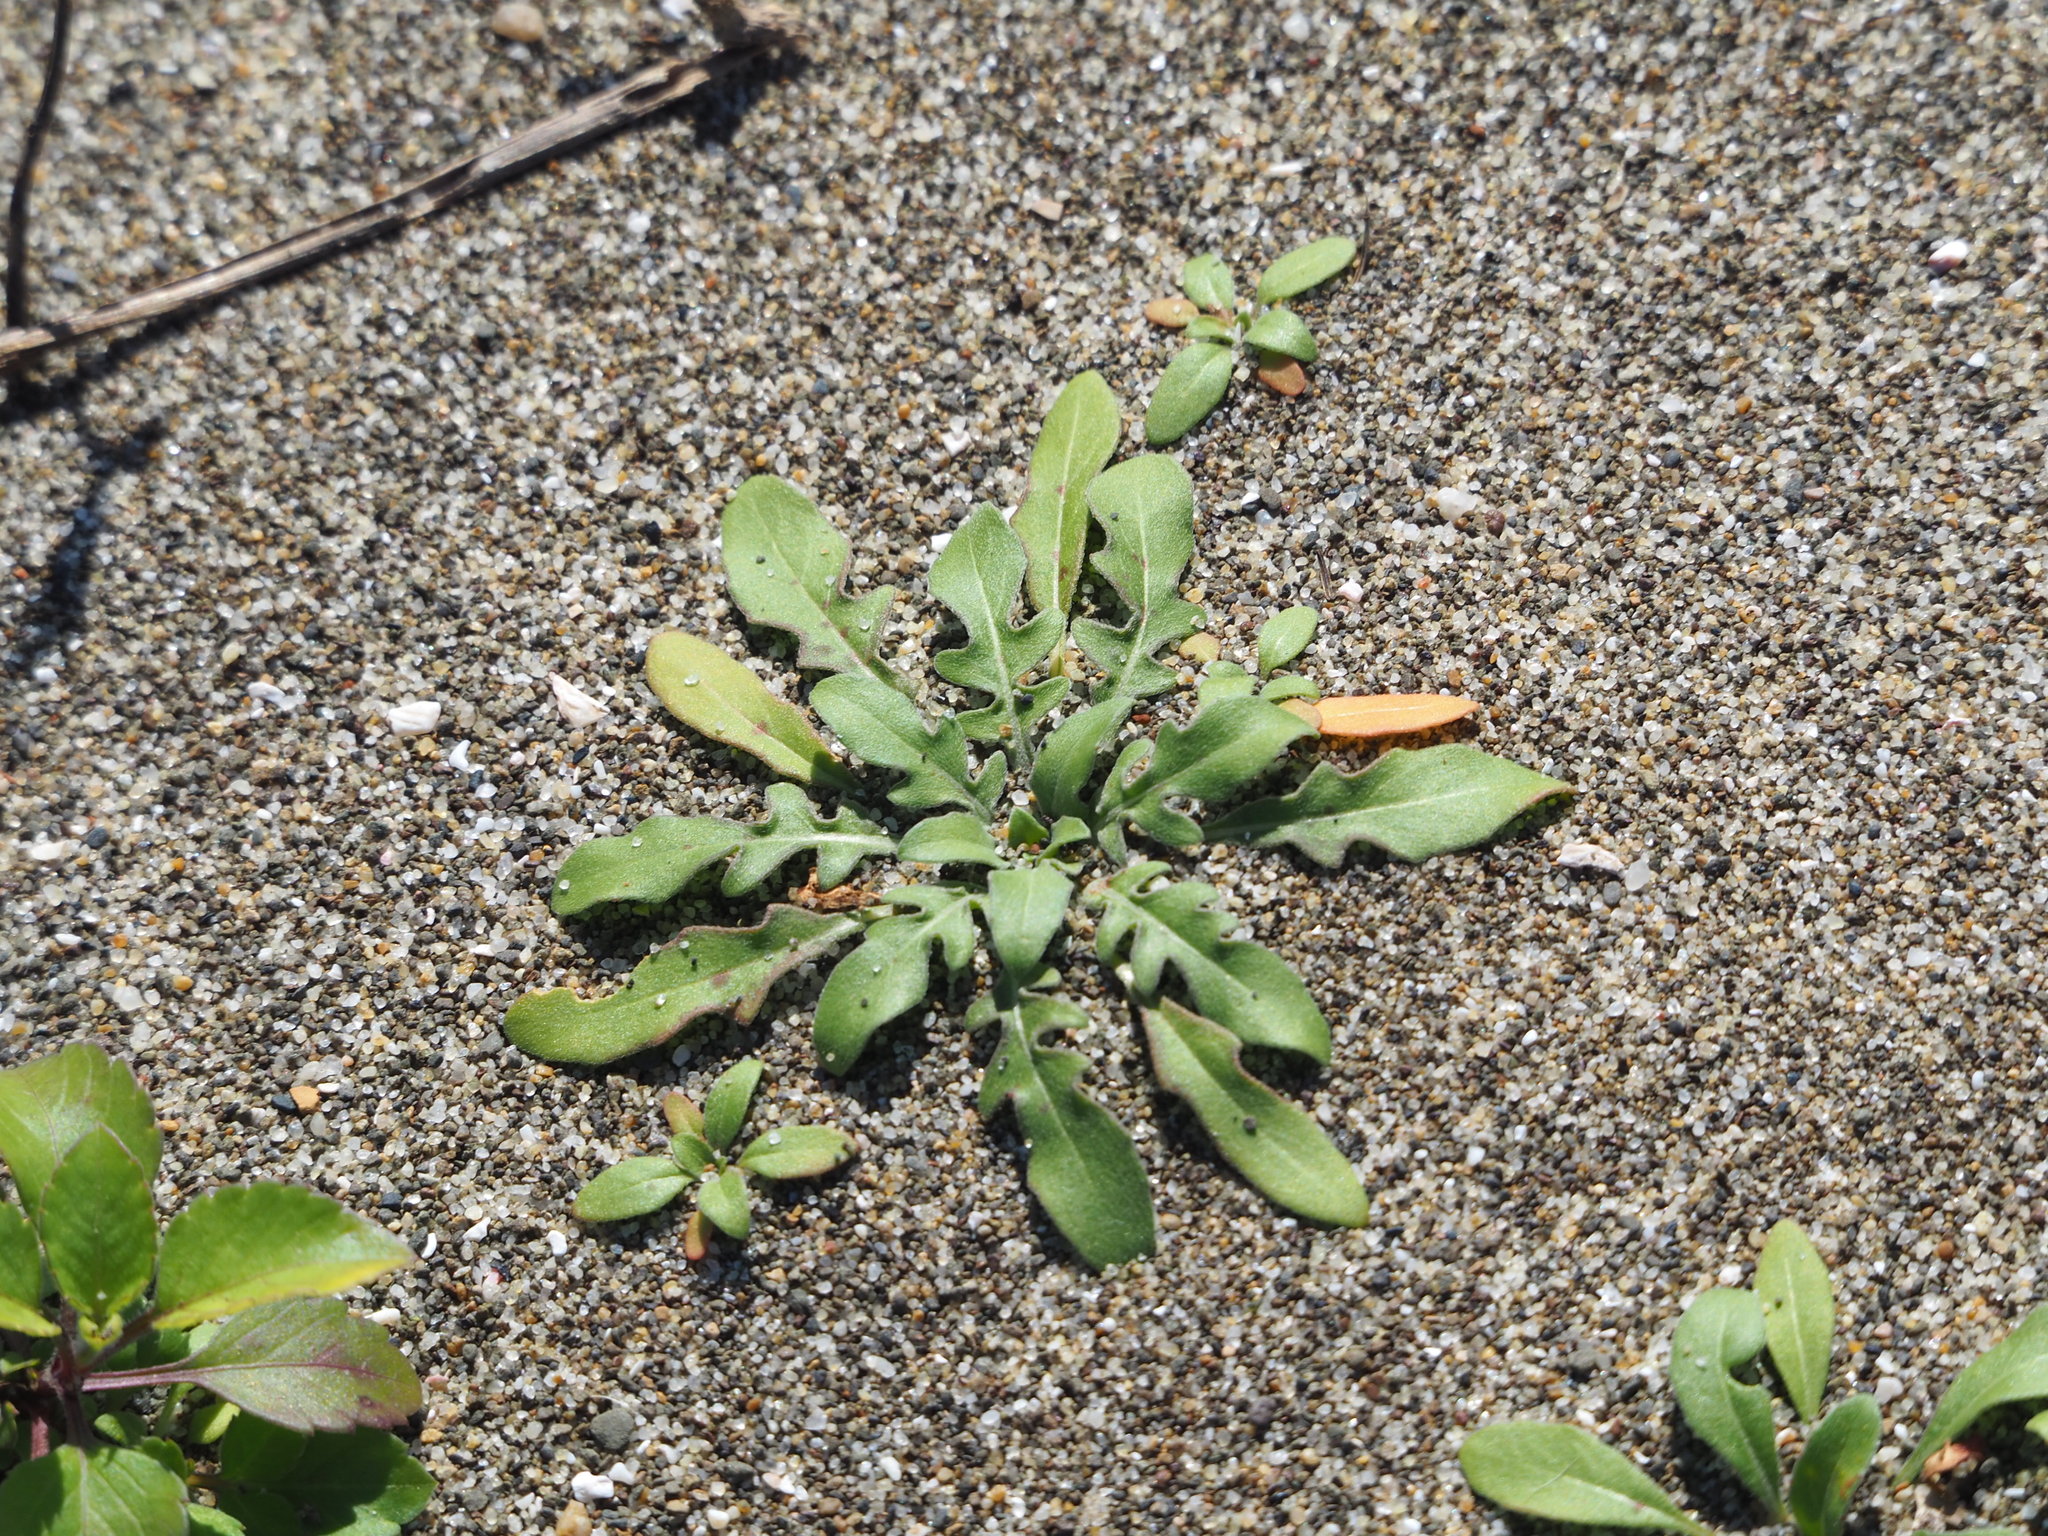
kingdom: Plantae
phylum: Tracheophyta
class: Magnoliopsida
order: Myrtales
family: Onagraceae
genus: Oenothera
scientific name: Oenothera laciniata
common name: Cut-leaved evening-primrose
